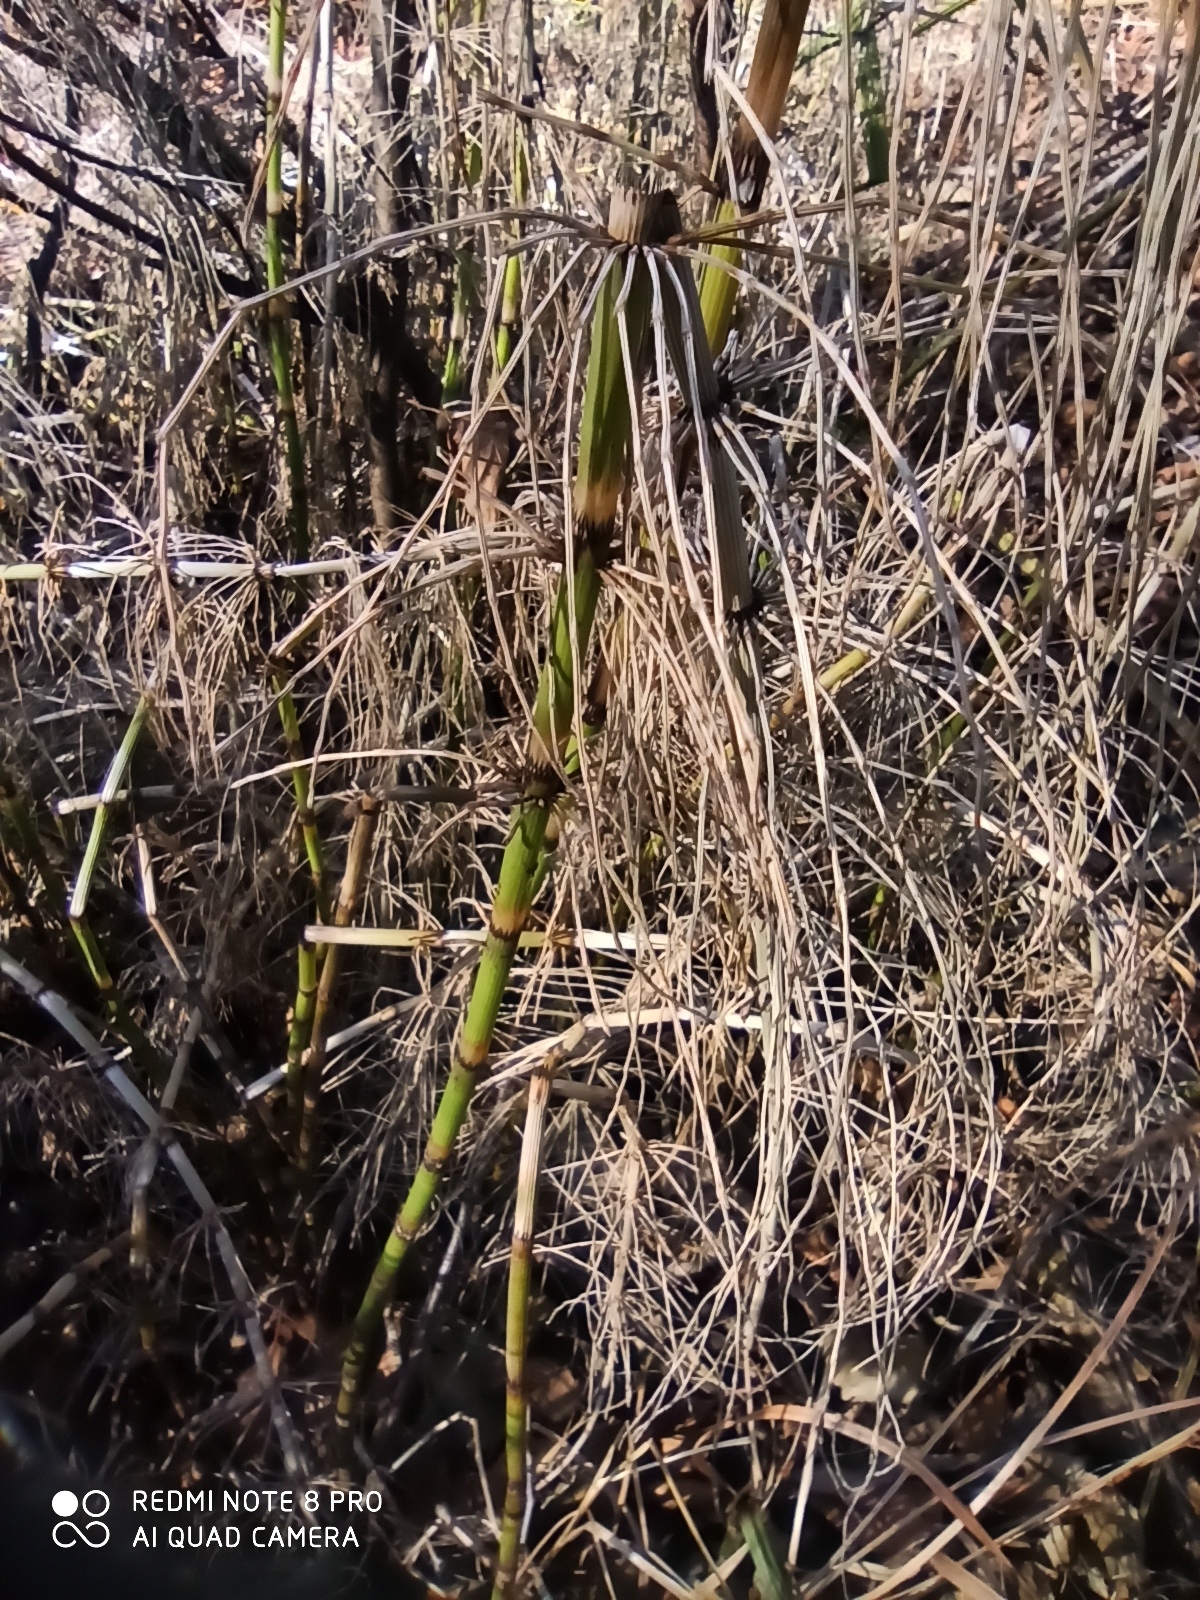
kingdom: Plantae
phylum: Tracheophyta
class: Polypodiopsida
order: Equisetales
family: Equisetaceae
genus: Equisetum
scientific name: Equisetum fluviatile
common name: Water horsetail
